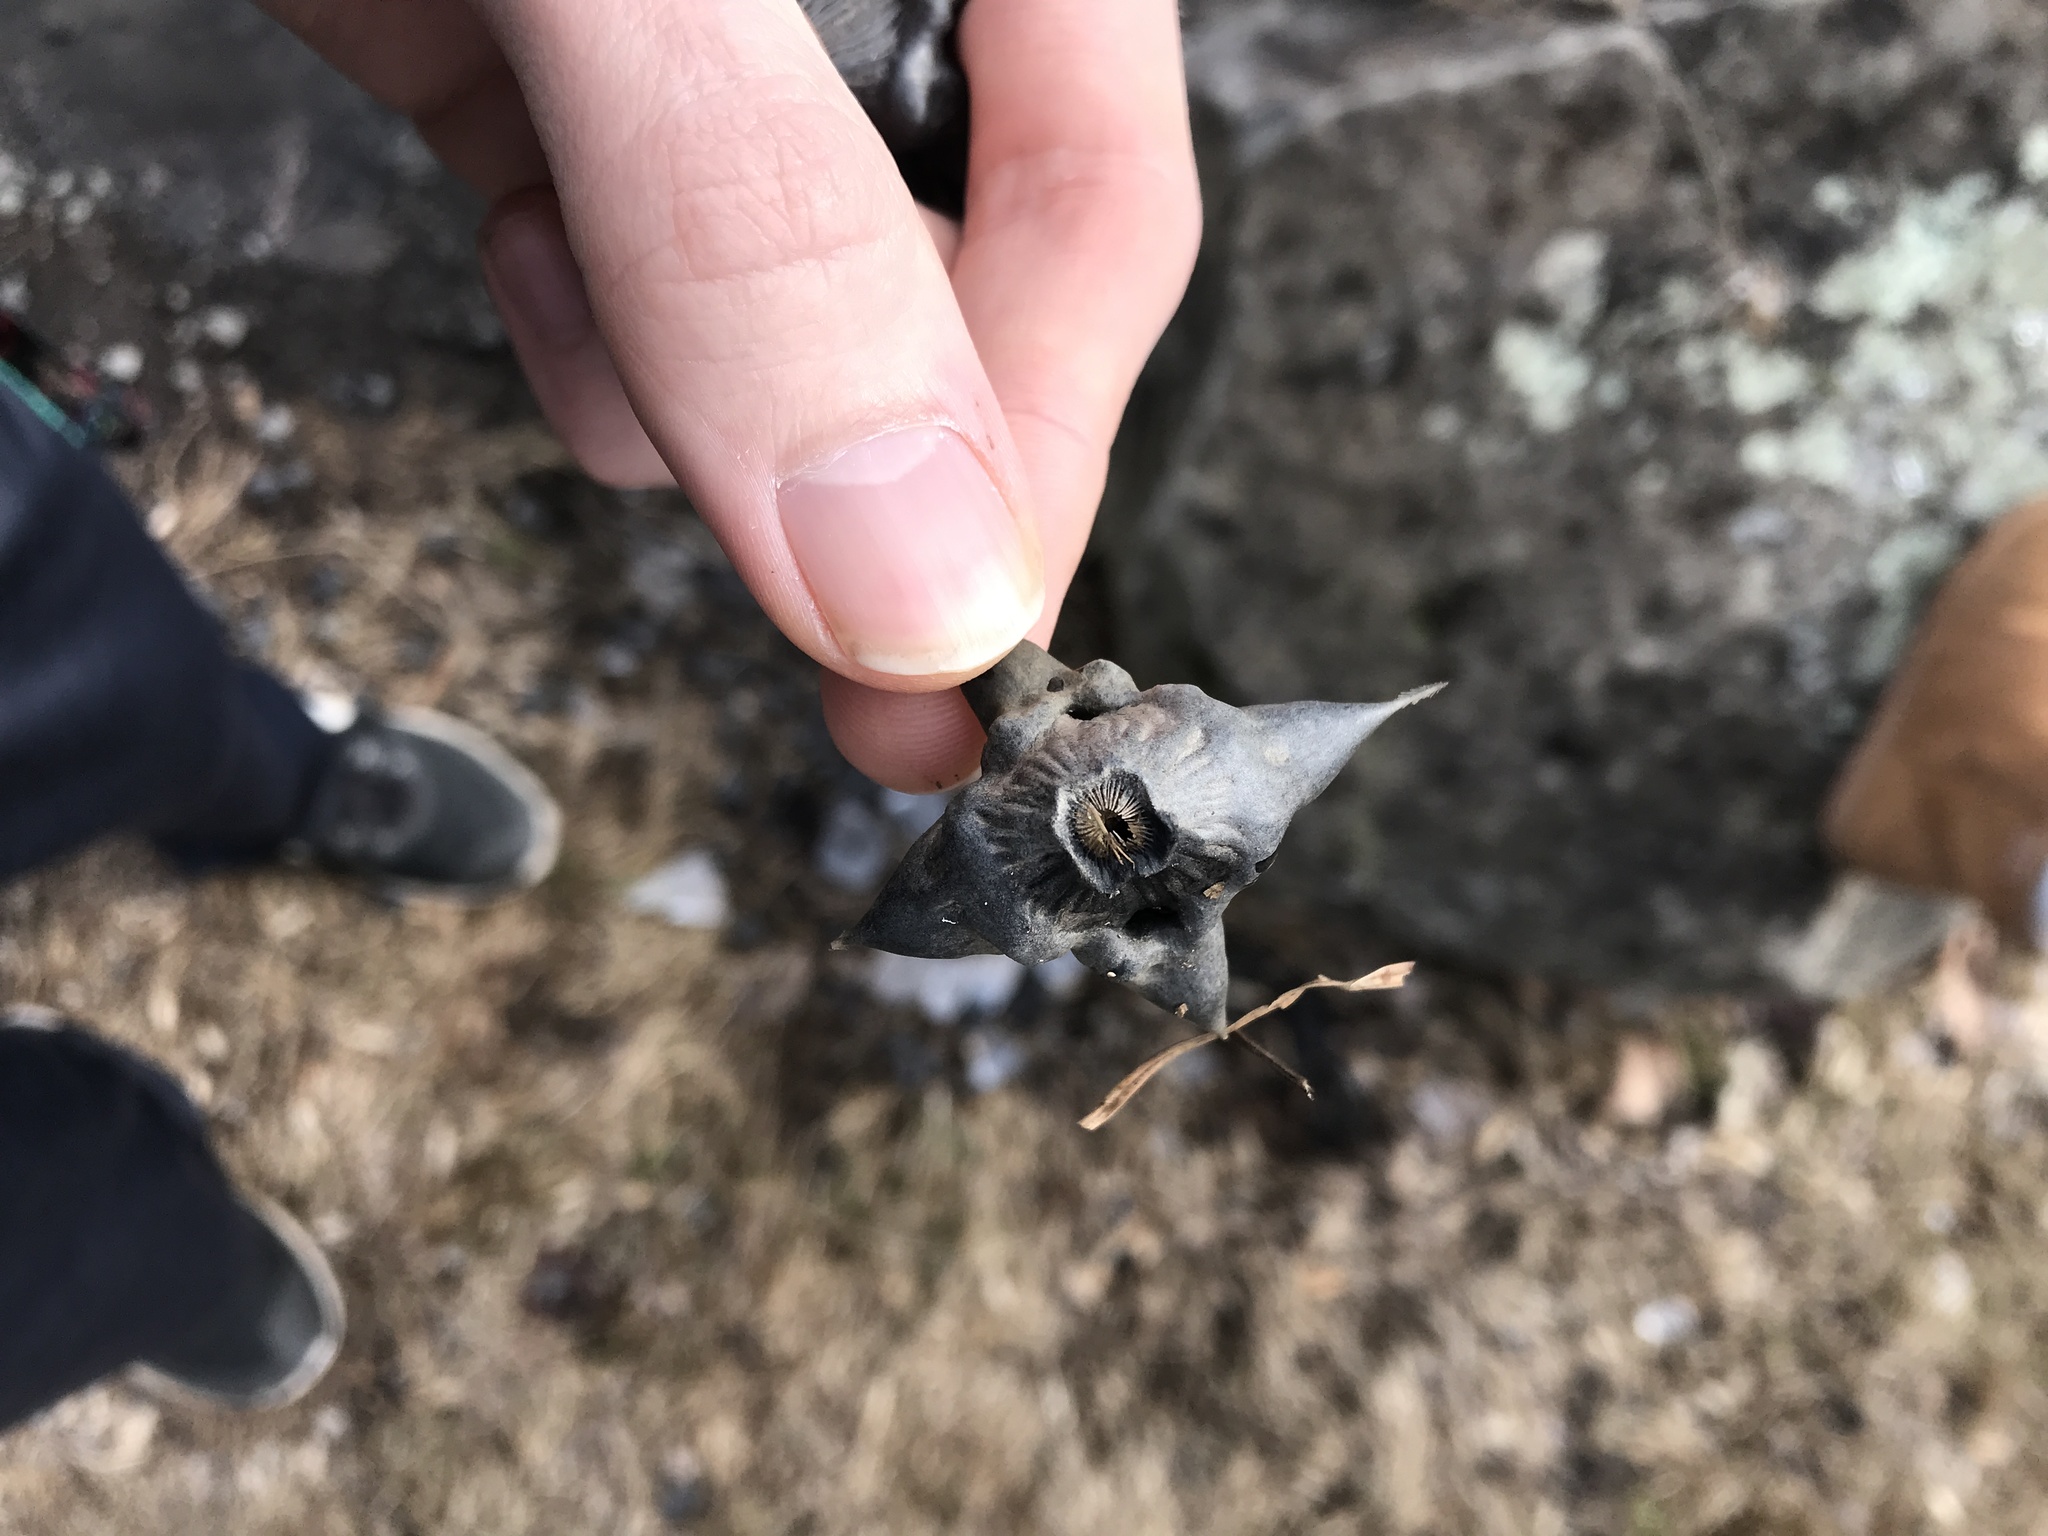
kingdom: Plantae
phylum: Tracheophyta
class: Magnoliopsida
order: Myrtales
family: Lythraceae
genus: Trapa
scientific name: Trapa natans
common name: Water chestnut
